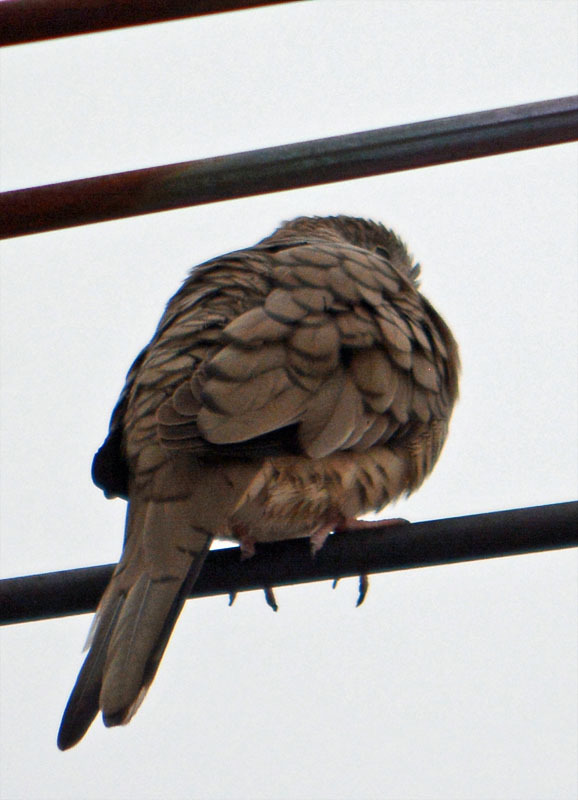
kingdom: Animalia
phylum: Chordata
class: Aves
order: Columbiformes
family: Columbidae
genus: Columbina
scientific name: Columbina inca
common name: Inca dove
